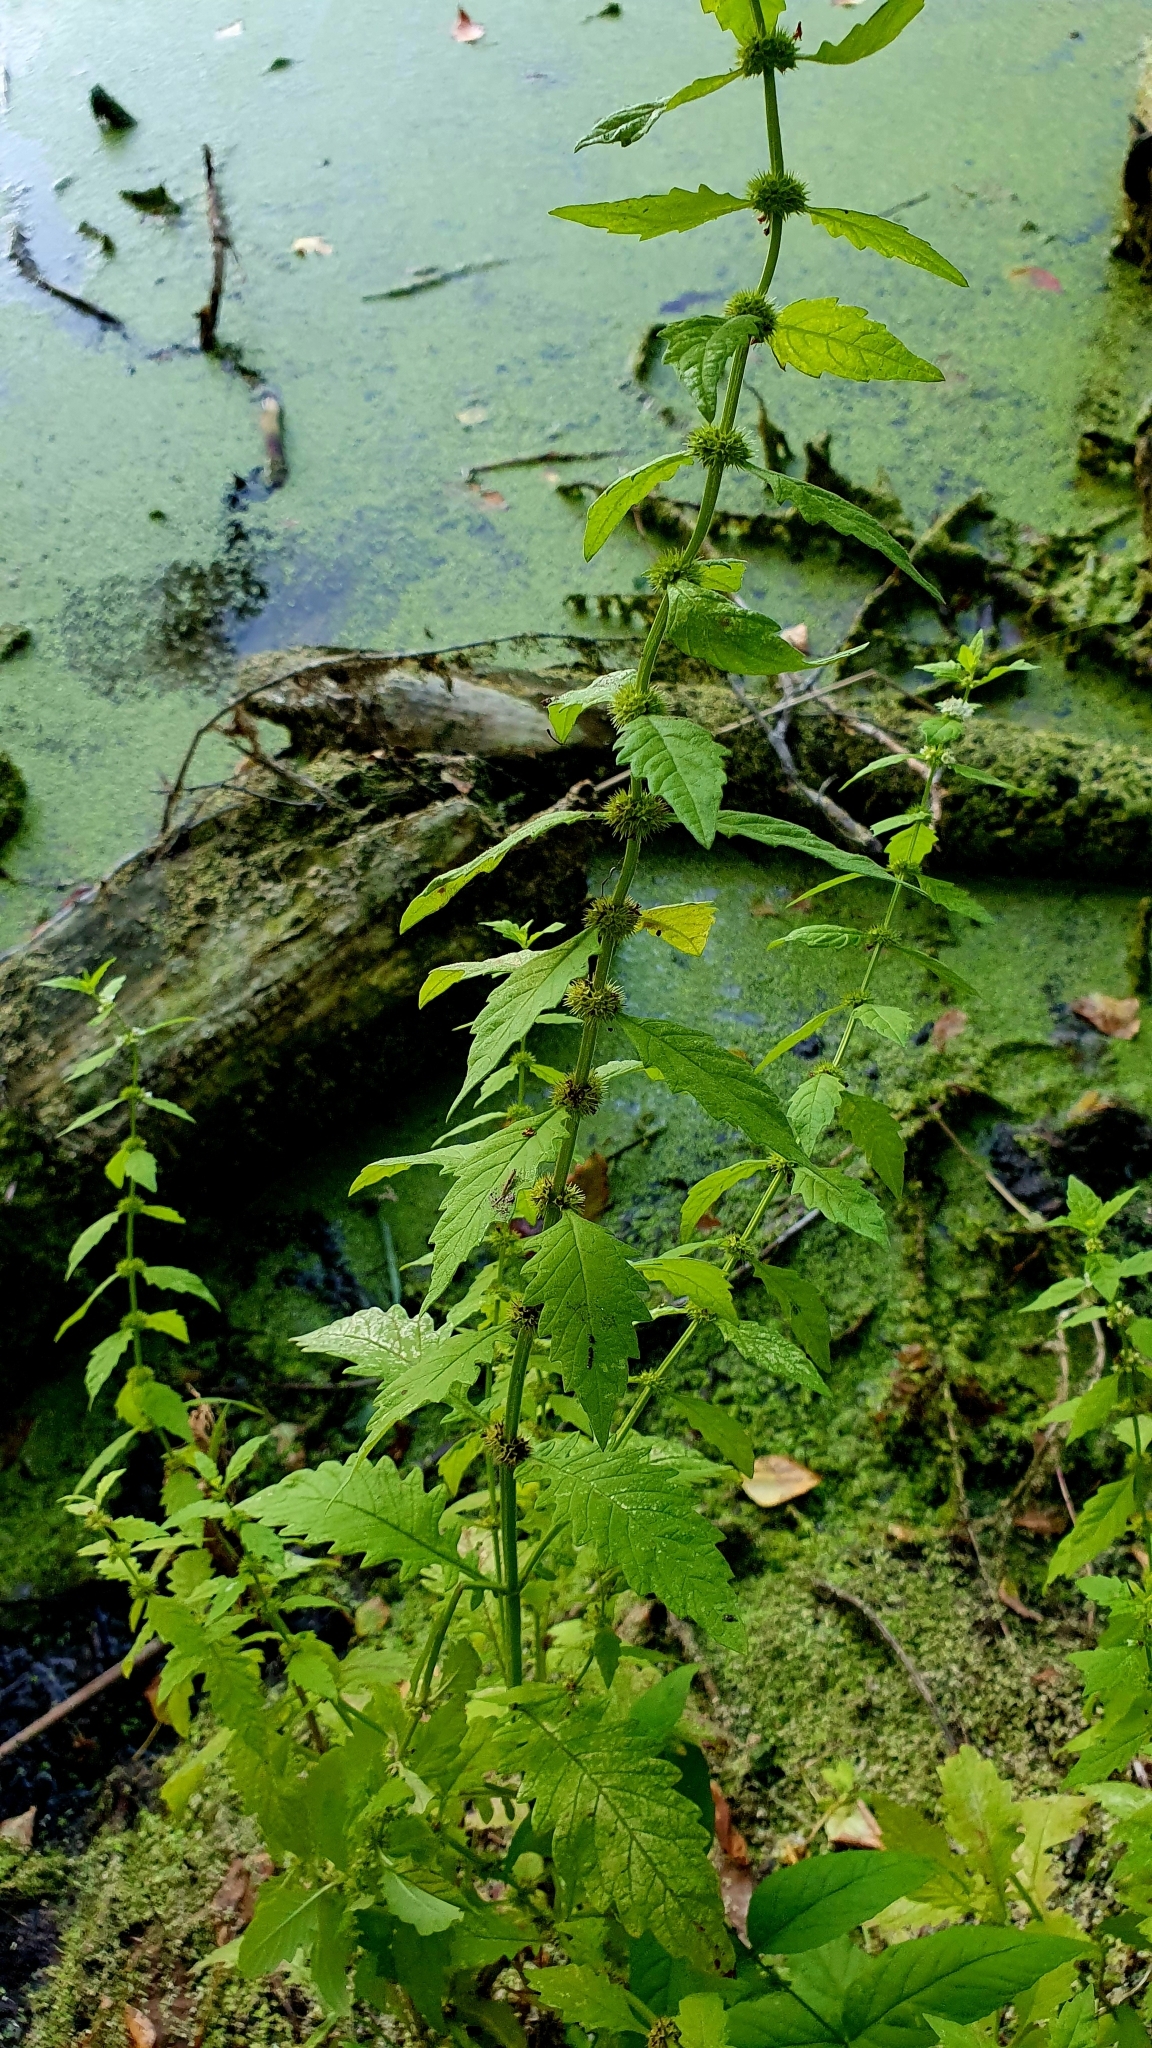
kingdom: Plantae
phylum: Tracheophyta
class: Magnoliopsida
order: Lamiales
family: Lamiaceae
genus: Lycopus
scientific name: Lycopus europaeus
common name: European bugleweed
